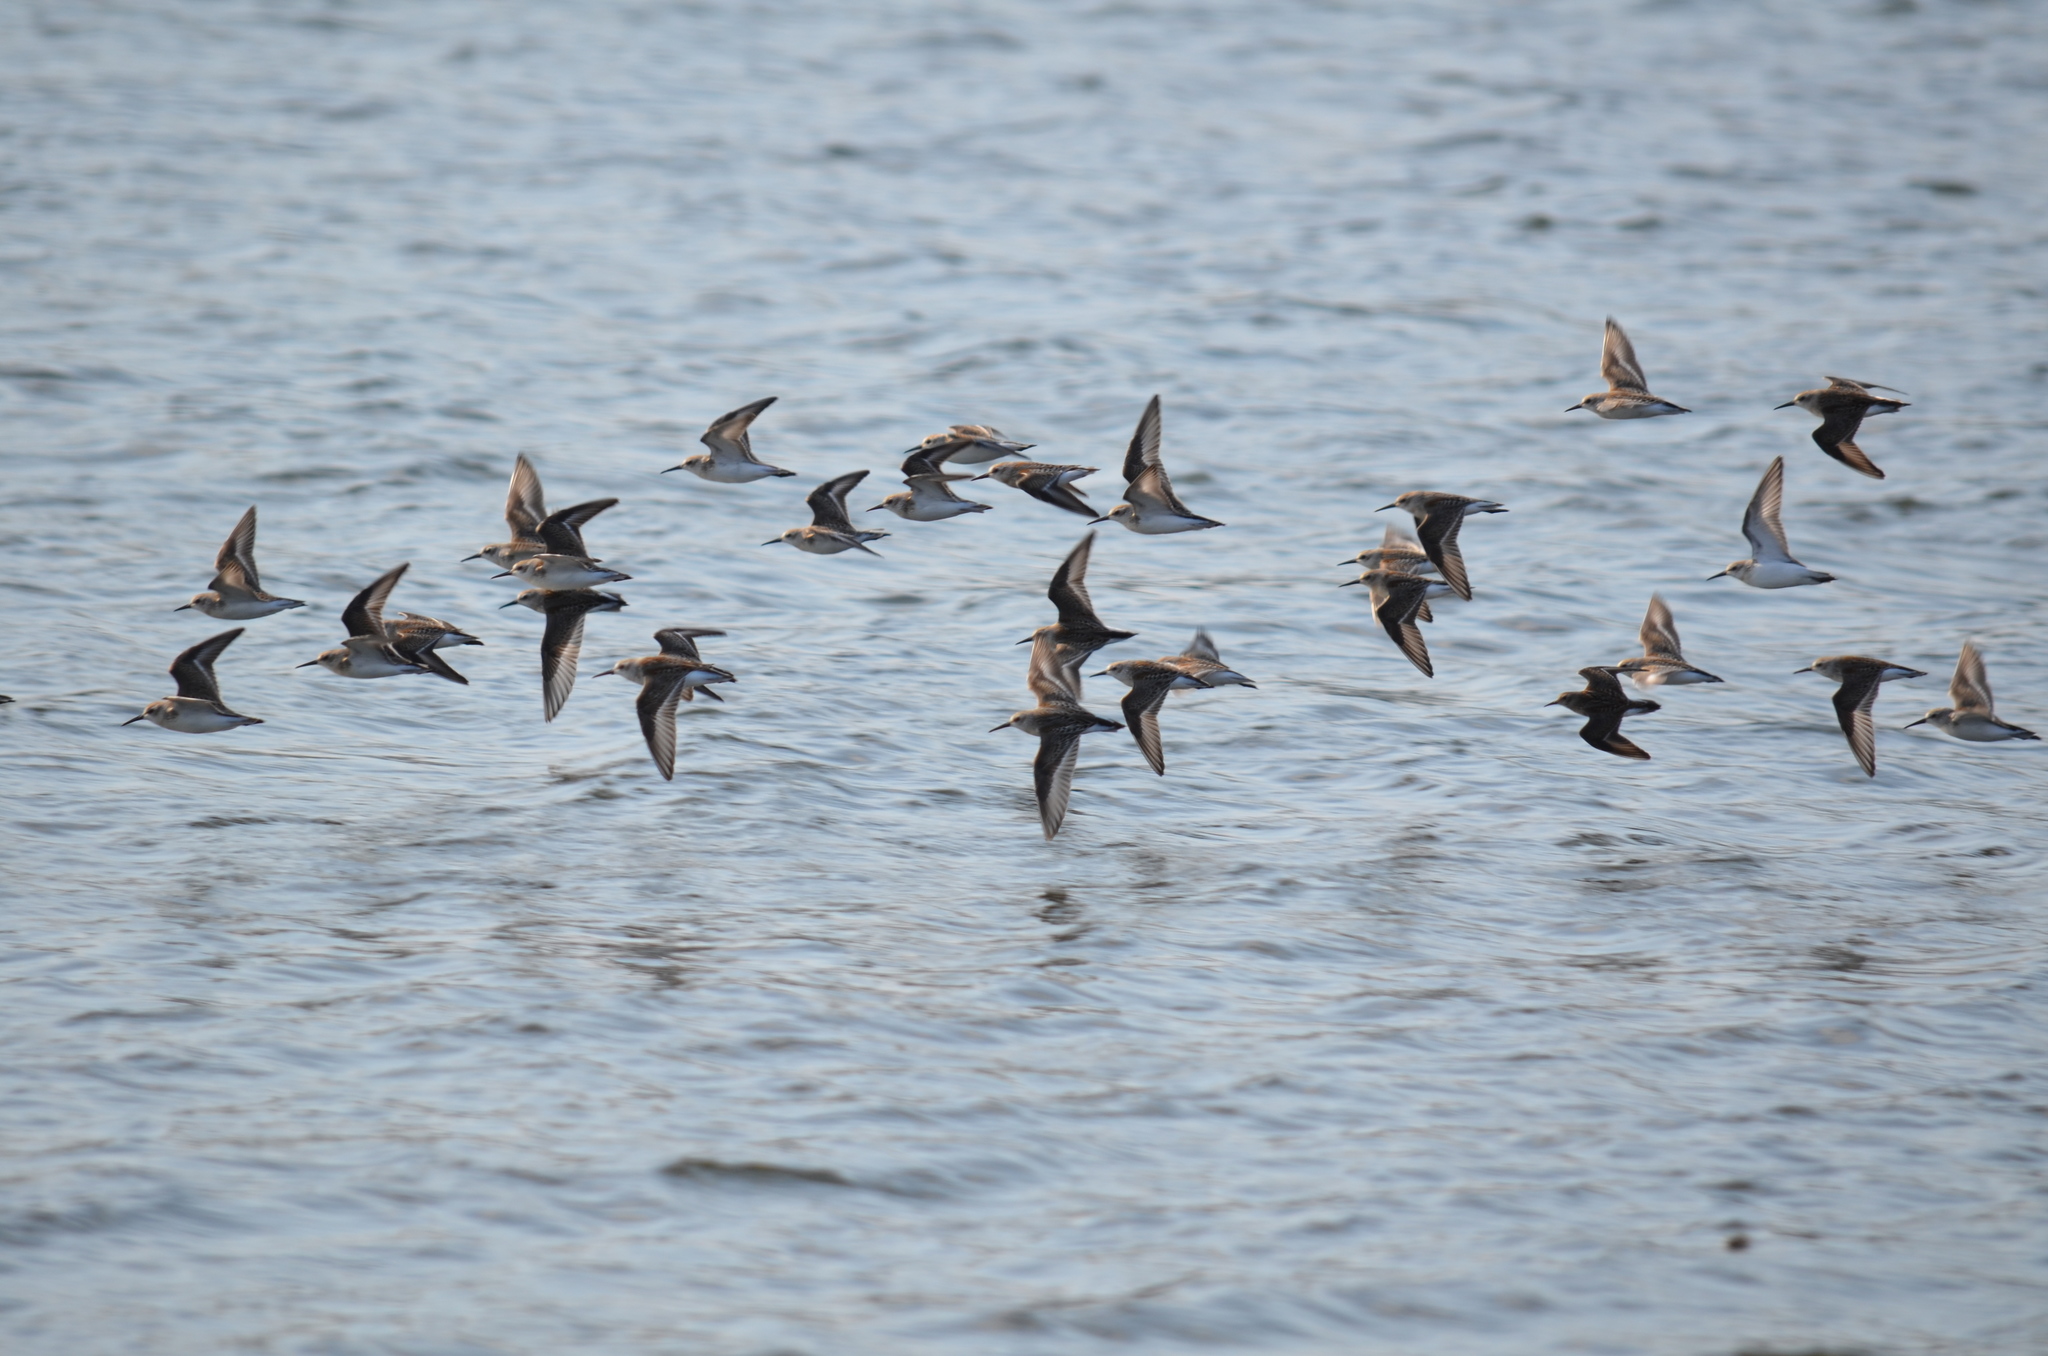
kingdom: Animalia
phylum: Chordata
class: Aves
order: Charadriiformes
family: Scolopacidae
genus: Calidris
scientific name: Calidris mauri
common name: Western sandpiper
